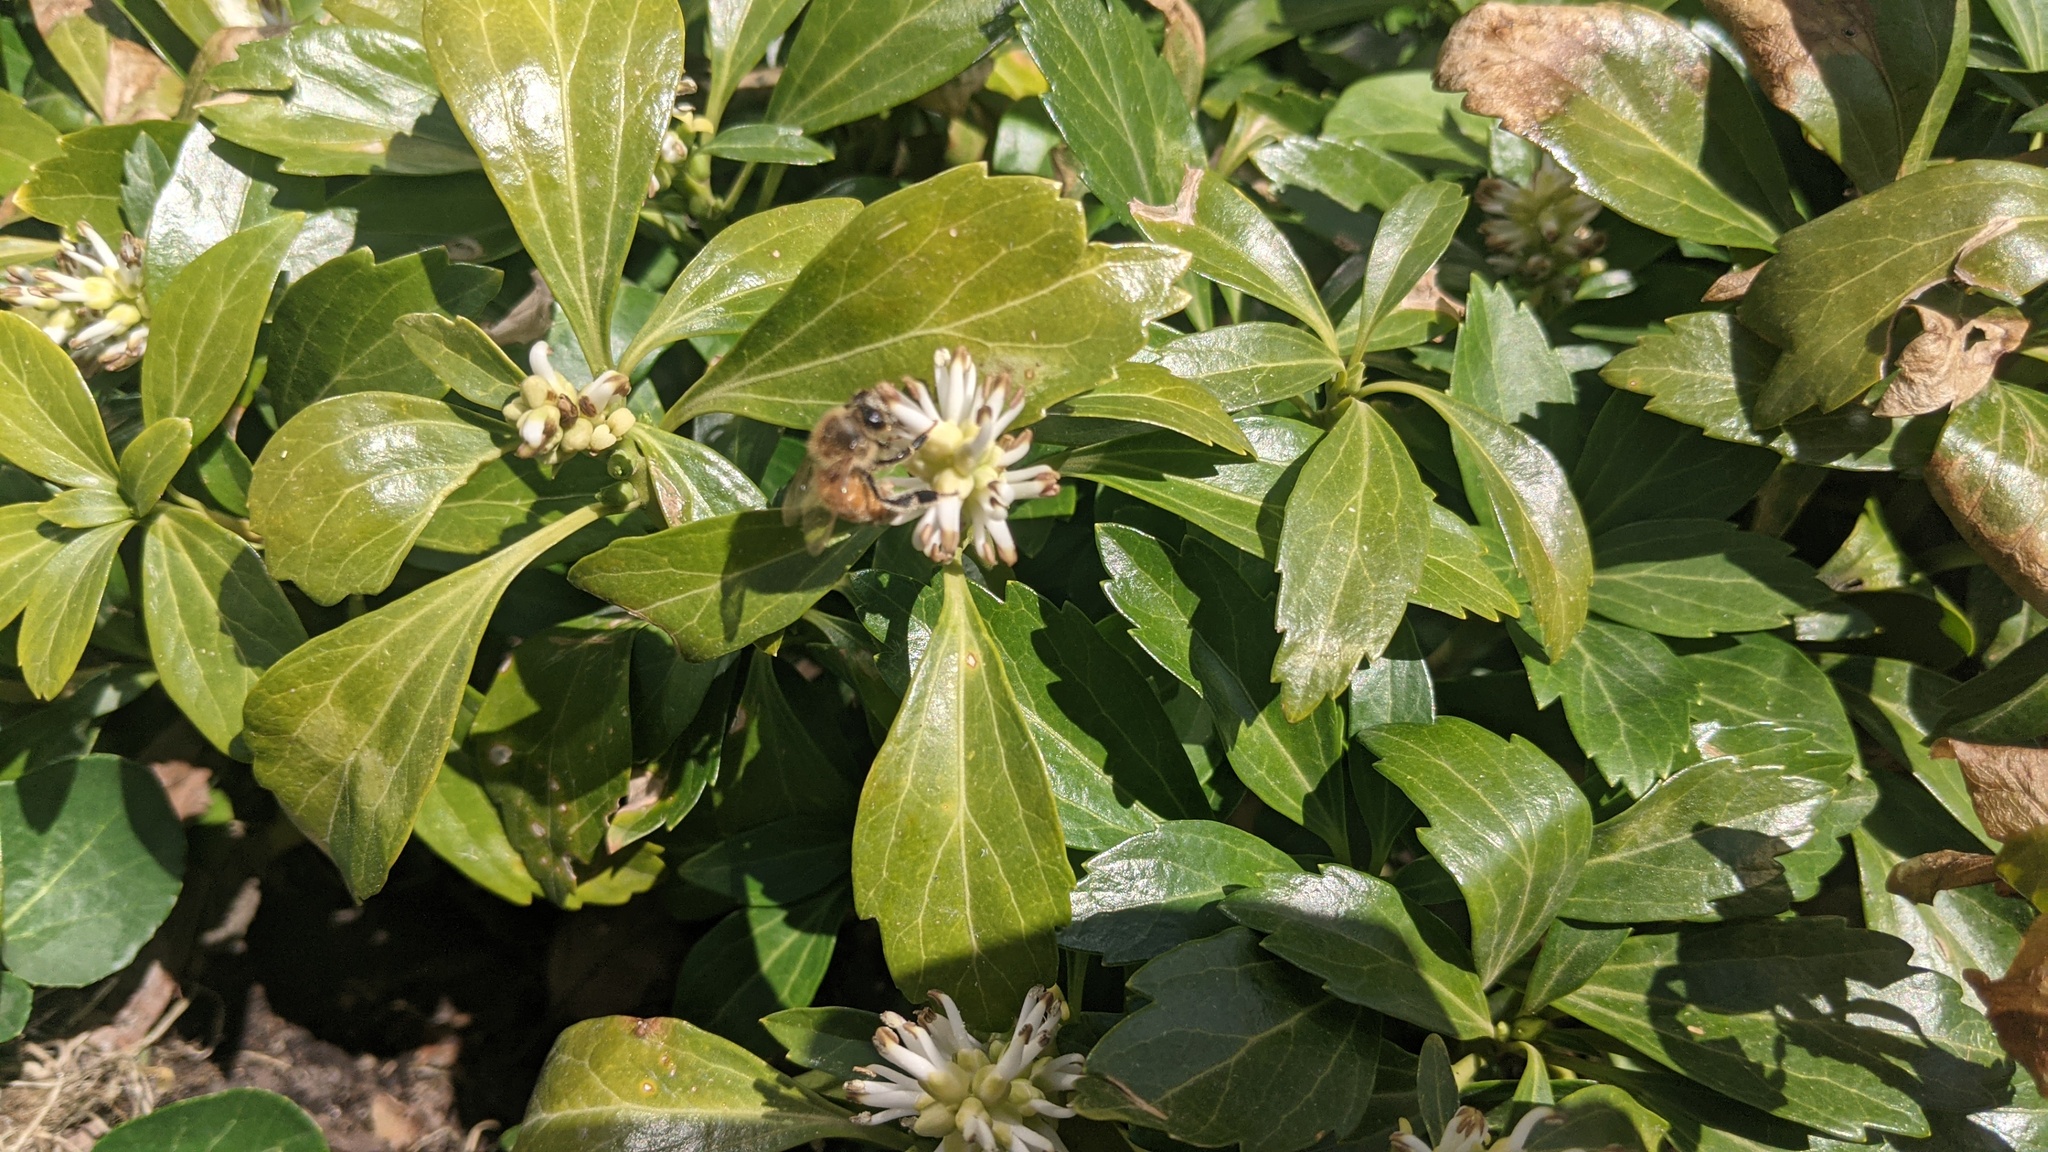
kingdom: Animalia
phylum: Arthropoda
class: Insecta
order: Hymenoptera
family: Apidae
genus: Apis
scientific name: Apis mellifera
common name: Honey bee
